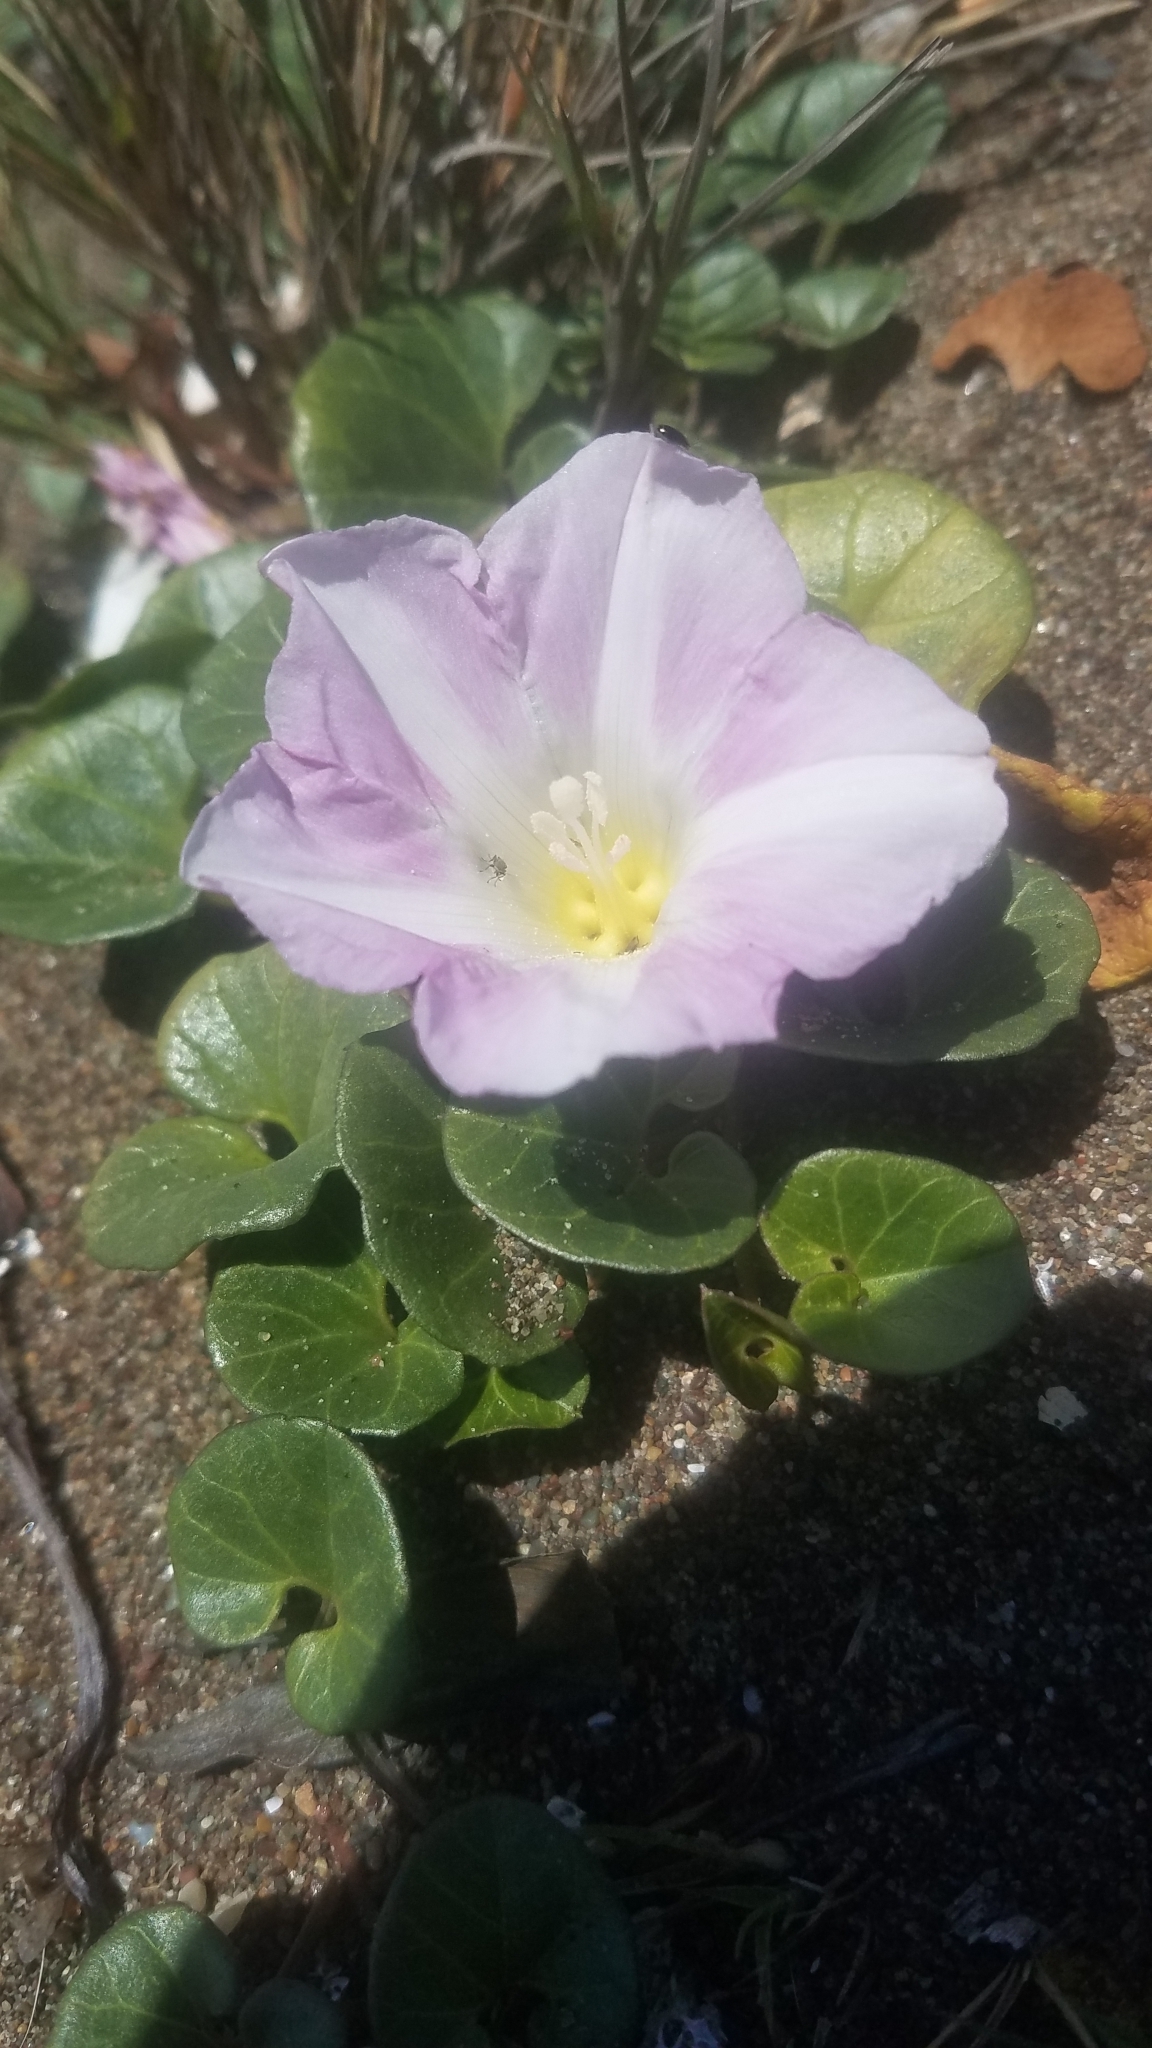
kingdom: Plantae
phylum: Tracheophyta
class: Magnoliopsida
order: Solanales
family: Convolvulaceae
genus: Calystegia
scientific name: Calystegia soldanella
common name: Sea bindweed
